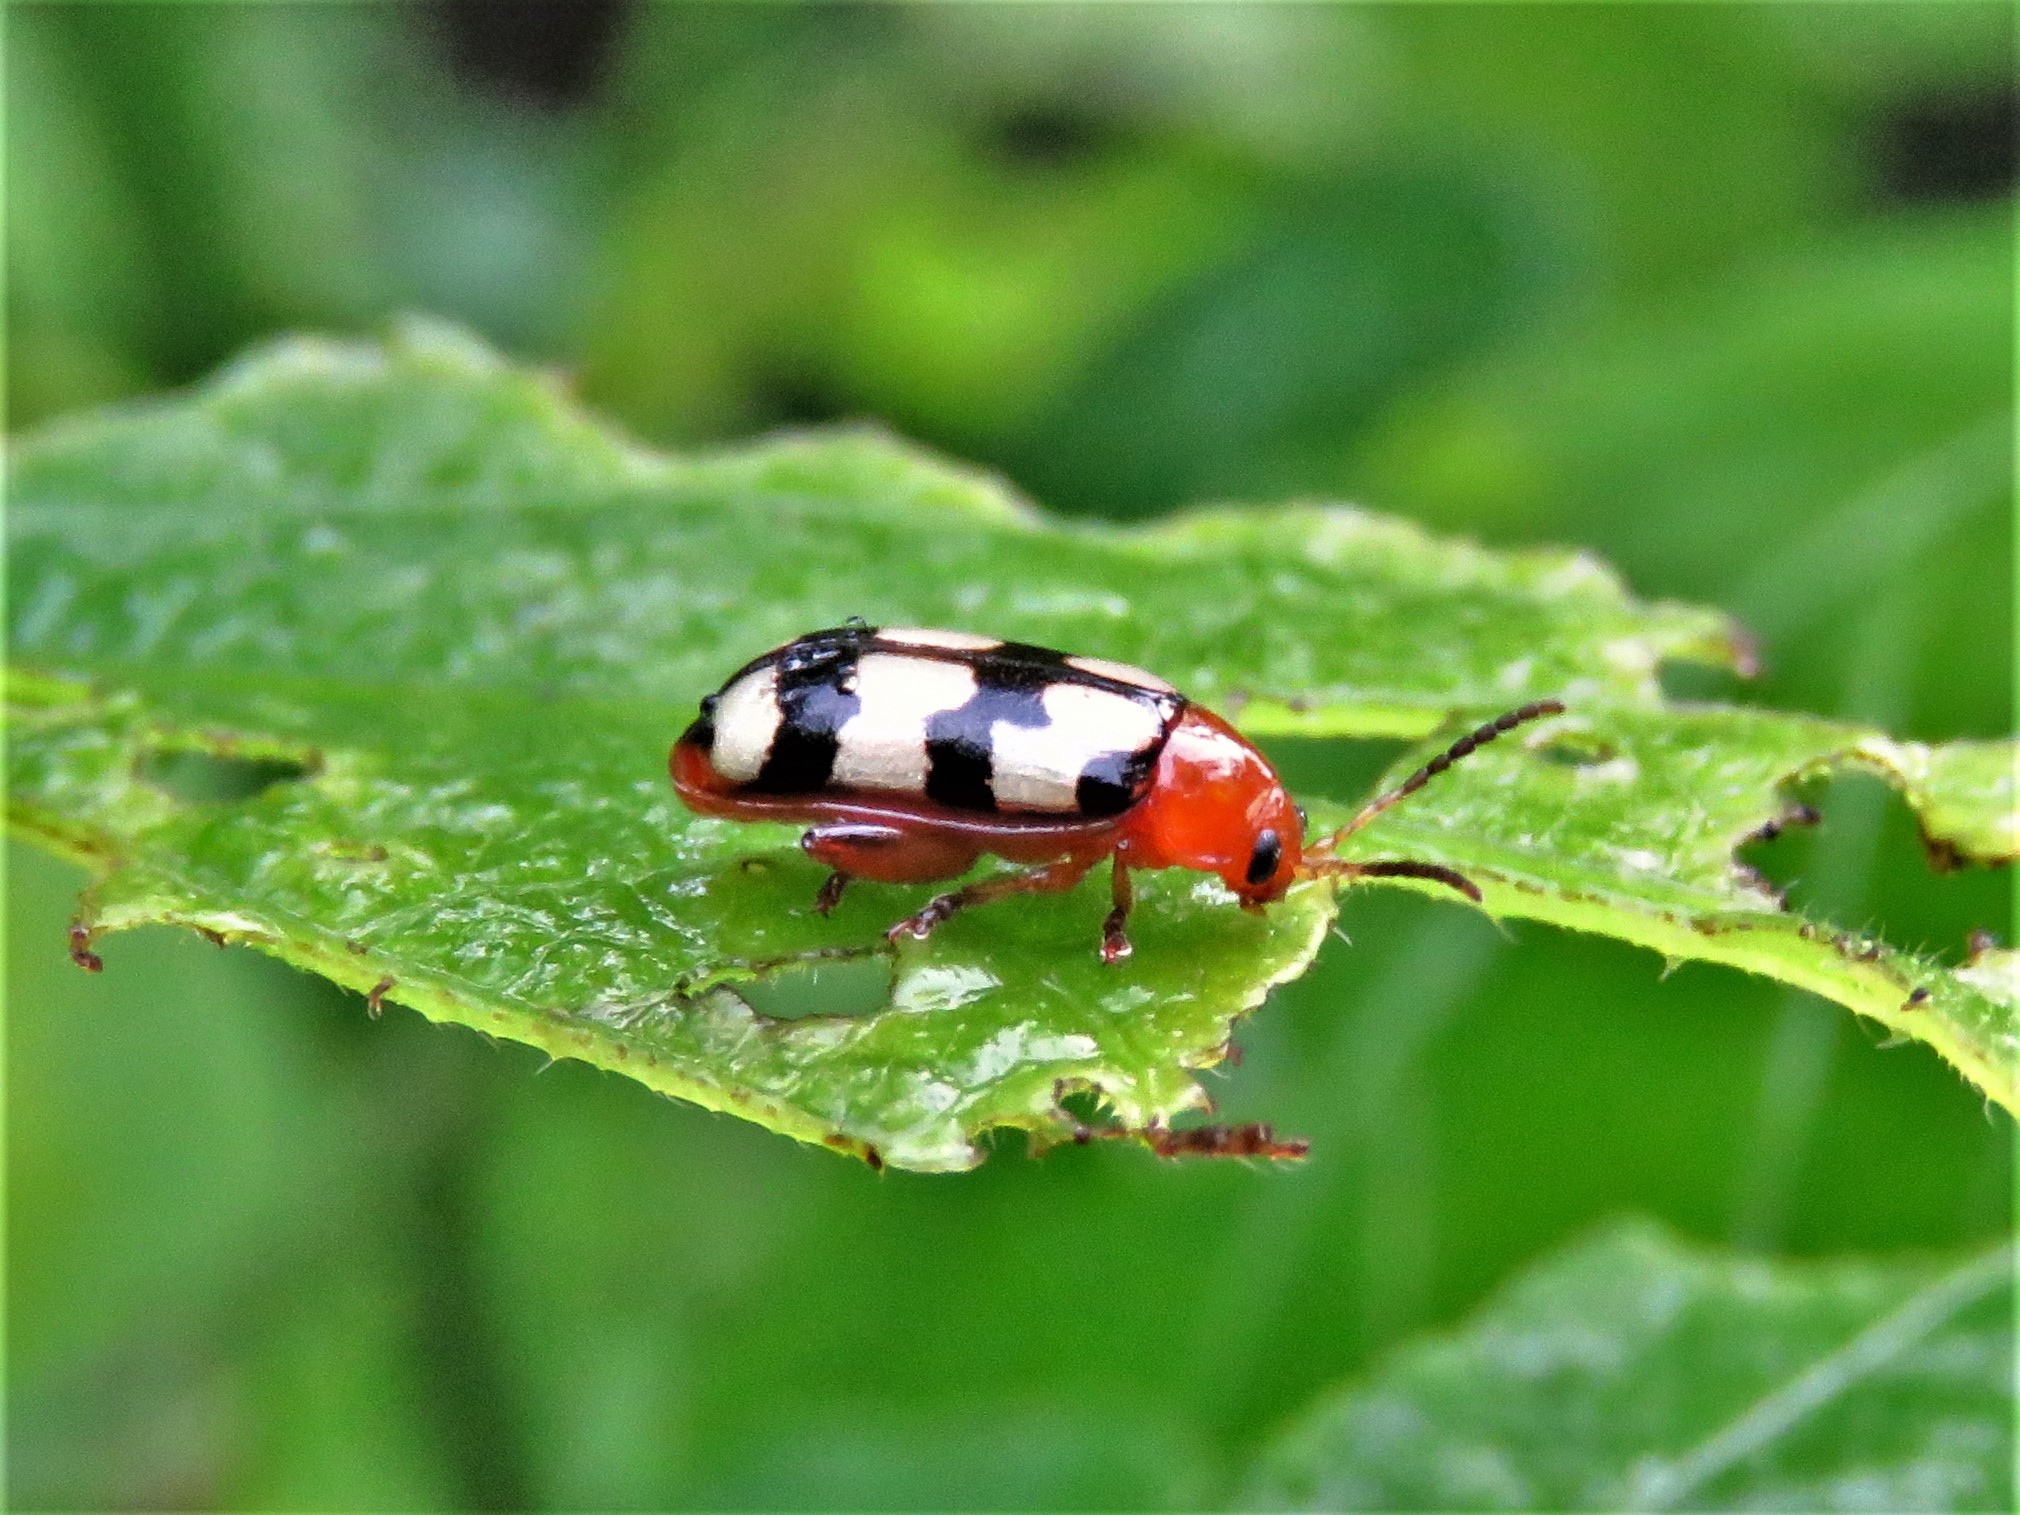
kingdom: Animalia
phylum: Arthropoda
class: Insecta
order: Coleoptera
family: Chrysomelidae
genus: Disonycha
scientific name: Disonycha
